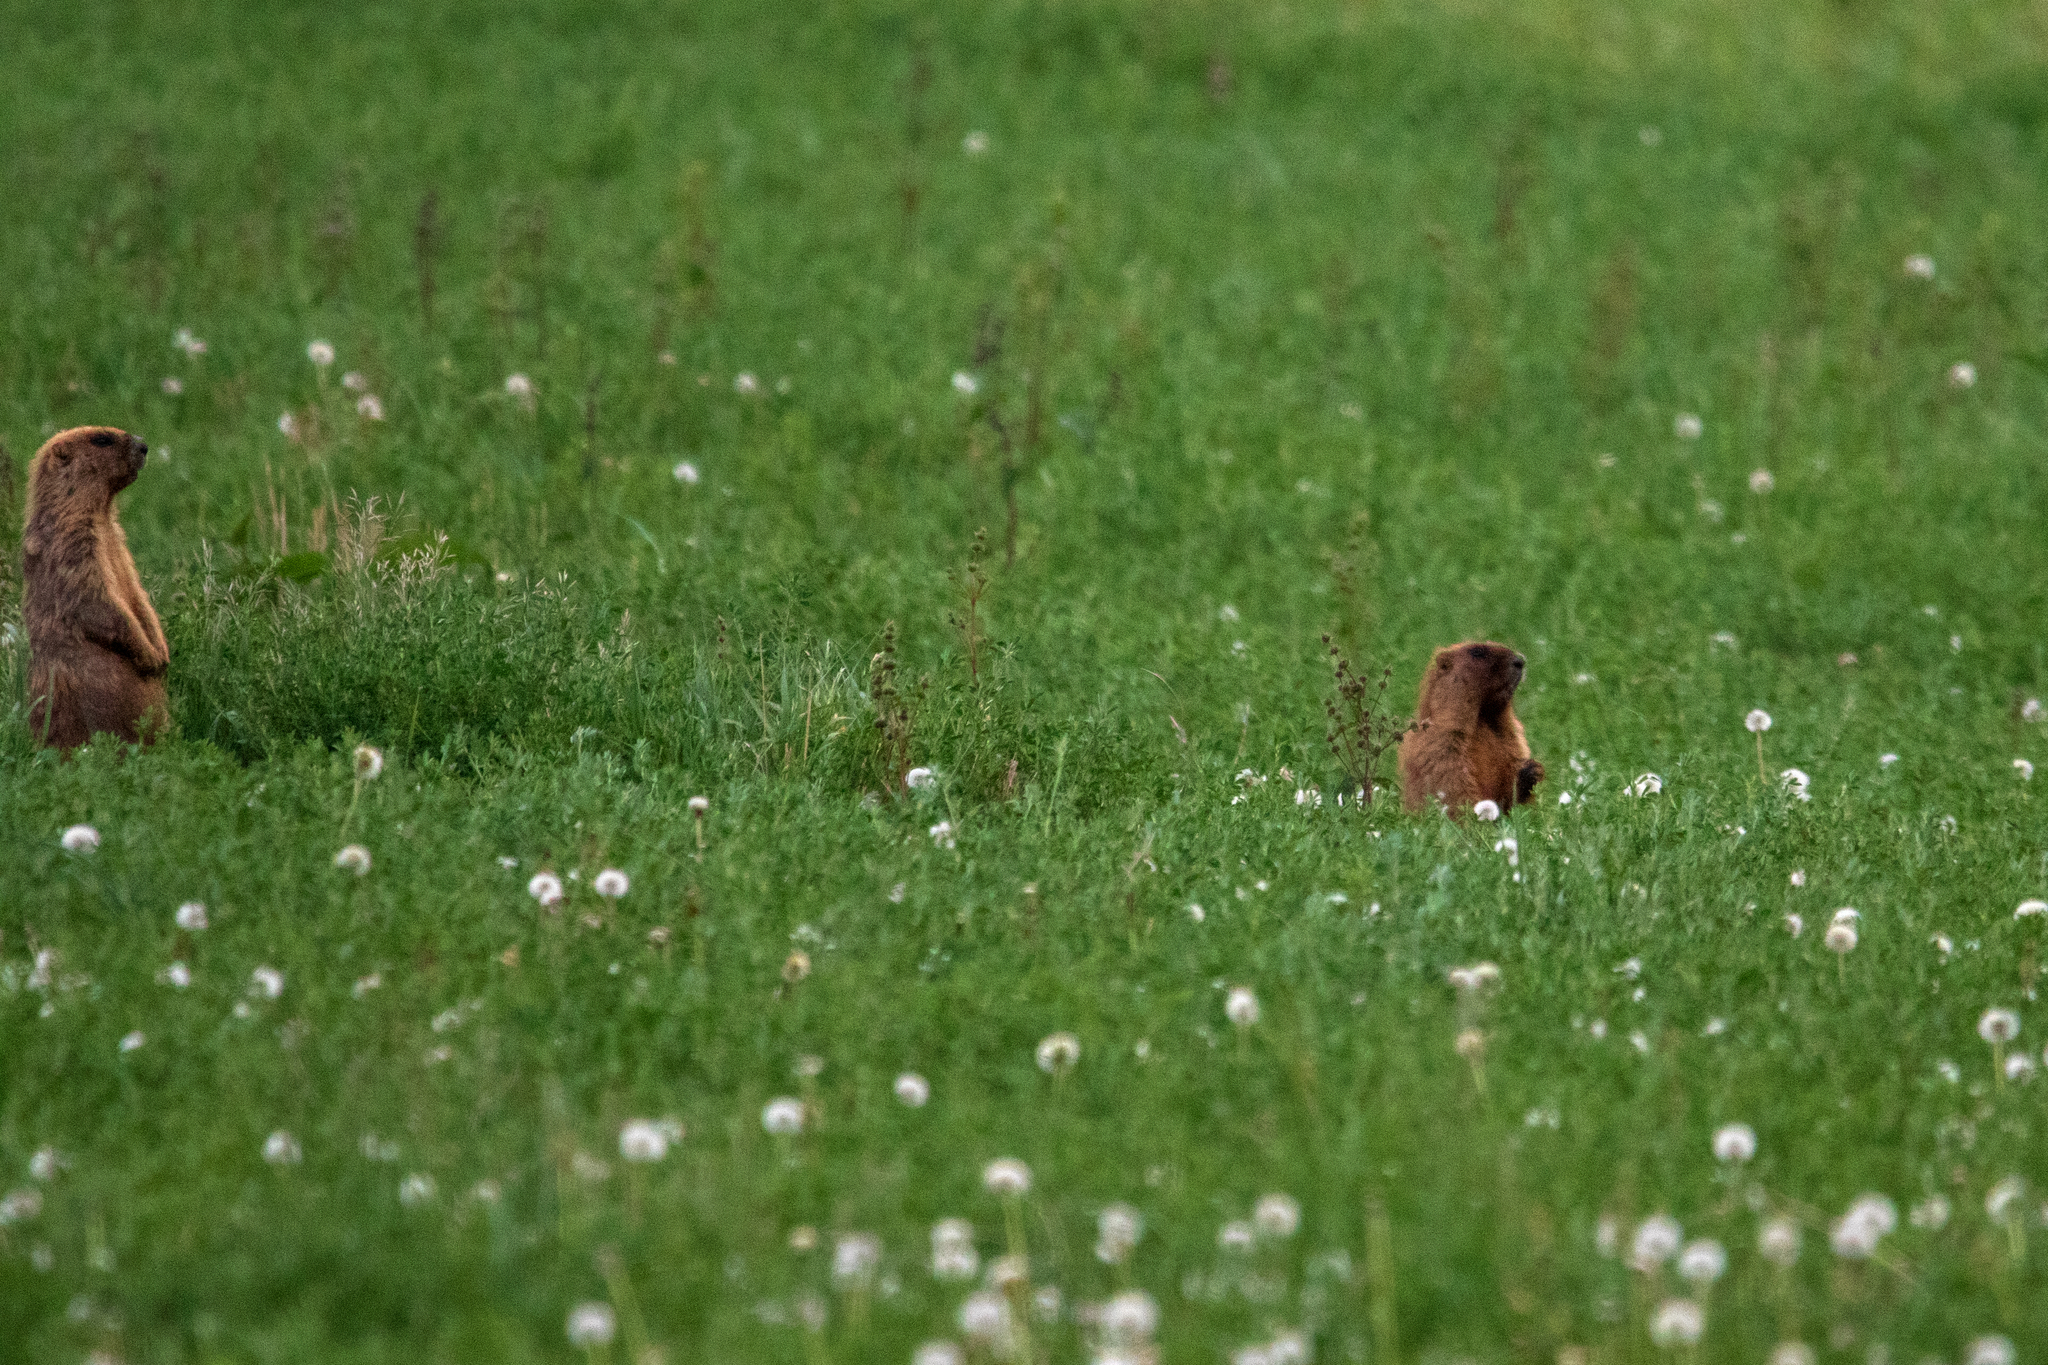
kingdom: Animalia
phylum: Chordata
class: Mammalia
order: Rodentia
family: Sciuridae
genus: Marmota
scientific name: Marmota kastschenkoi
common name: Forest steppe marmot
